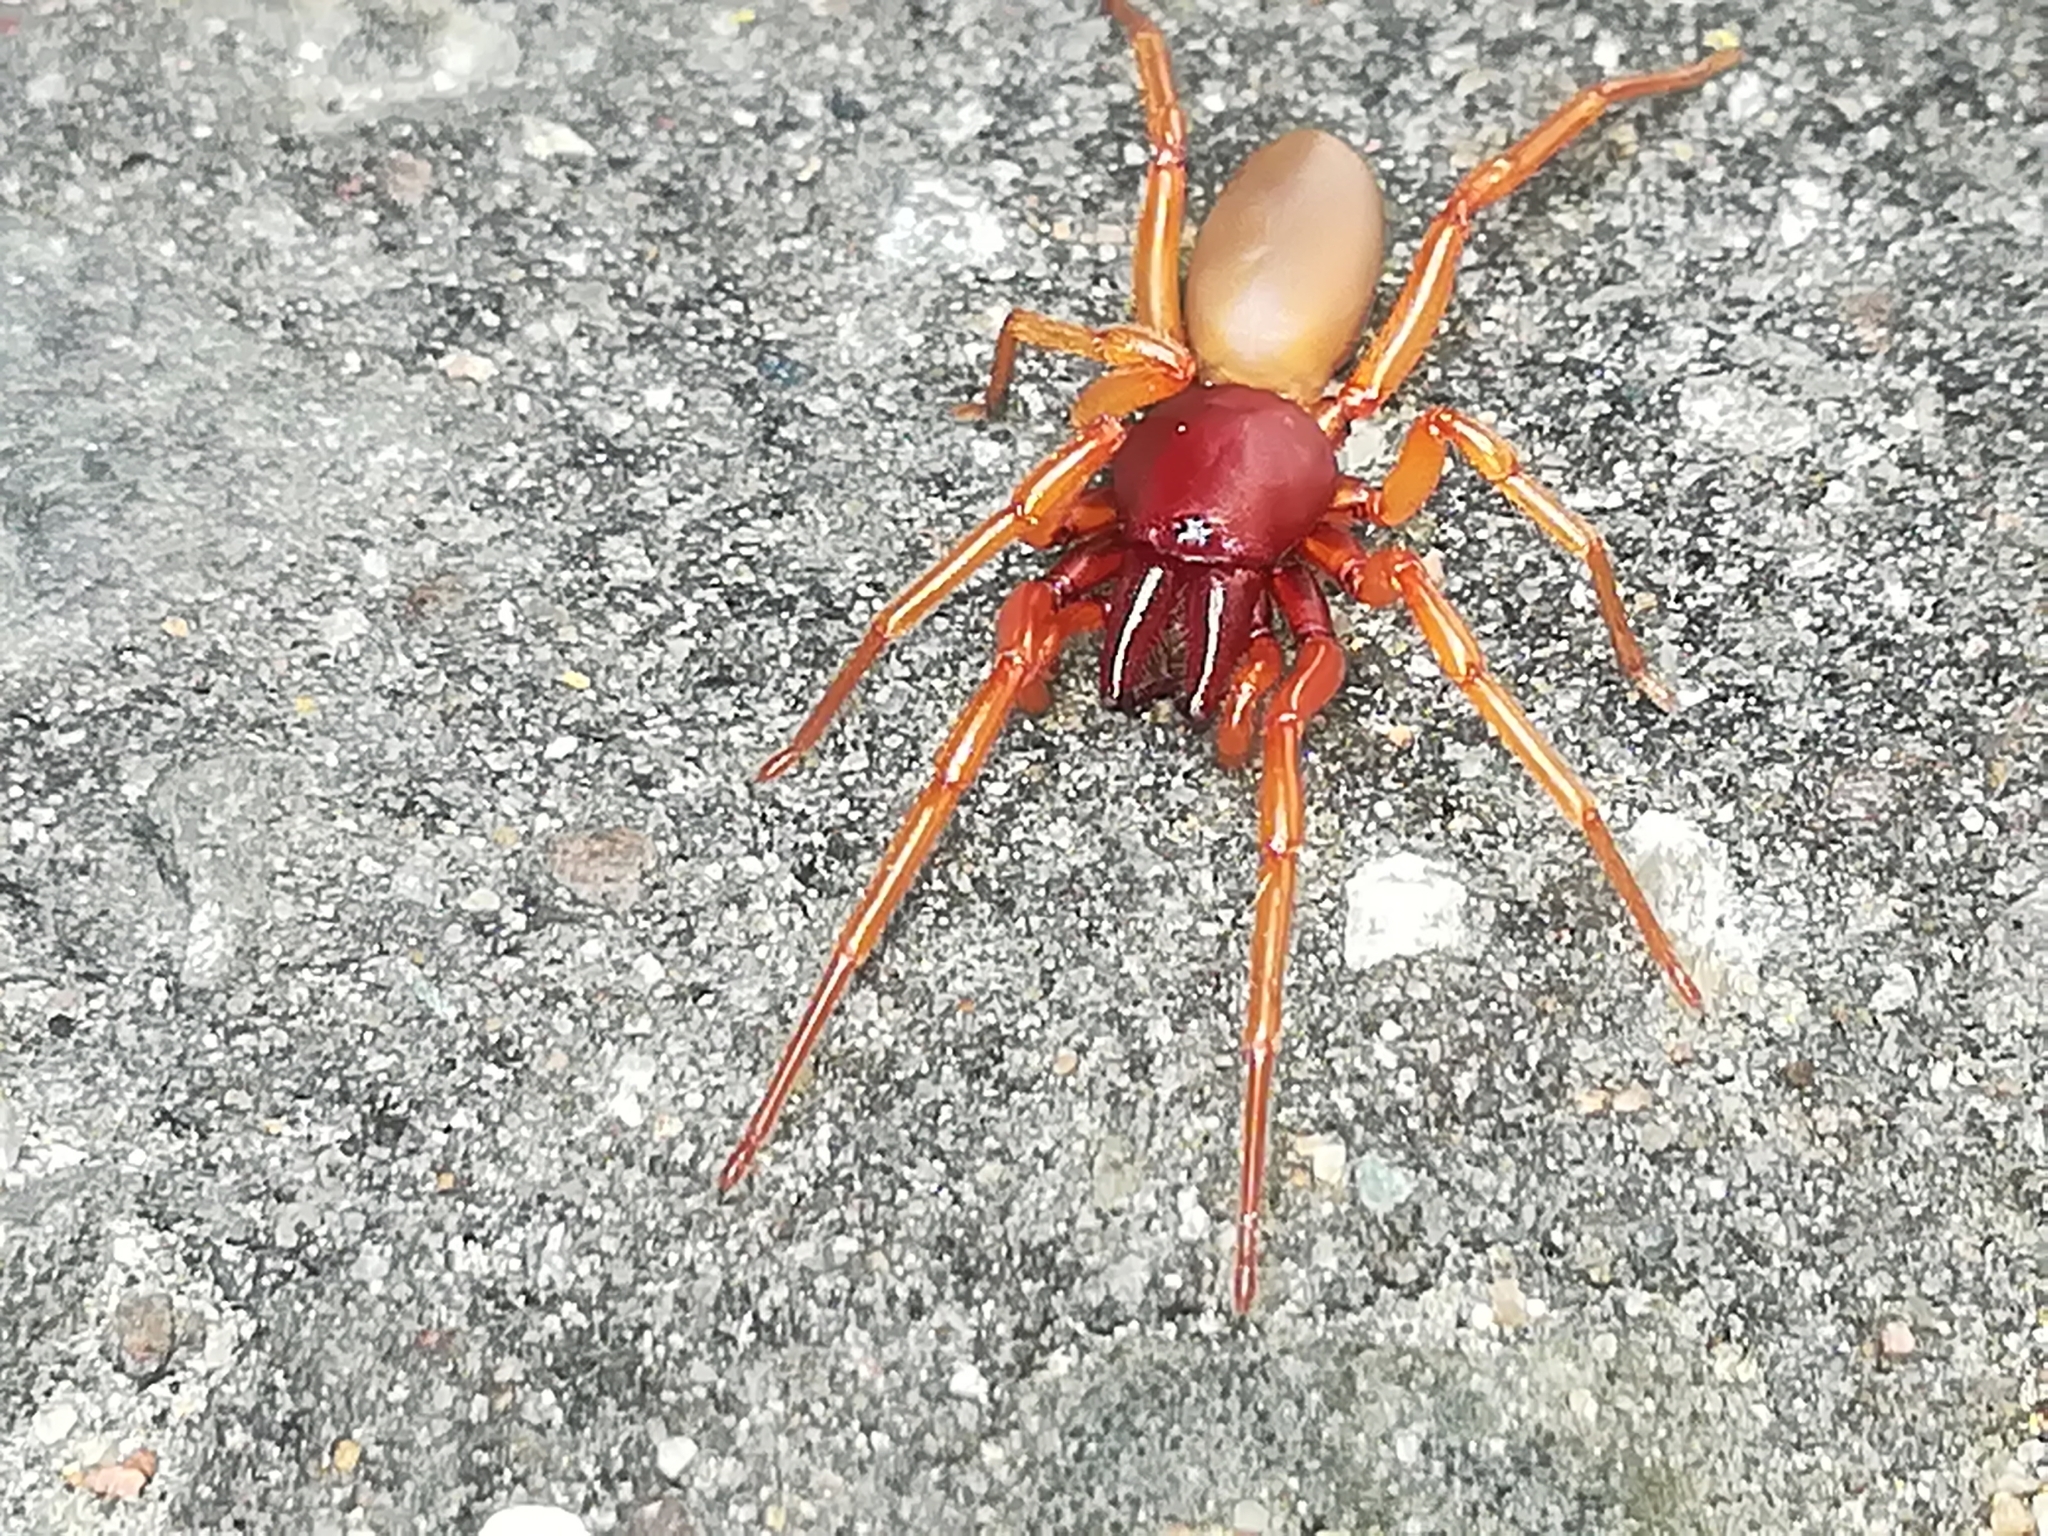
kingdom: Animalia
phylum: Arthropoda
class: Arachnida
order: Araneae
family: Dysderidae
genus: Dysdera
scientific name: Dysdera crocata
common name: Woodlouse spider
